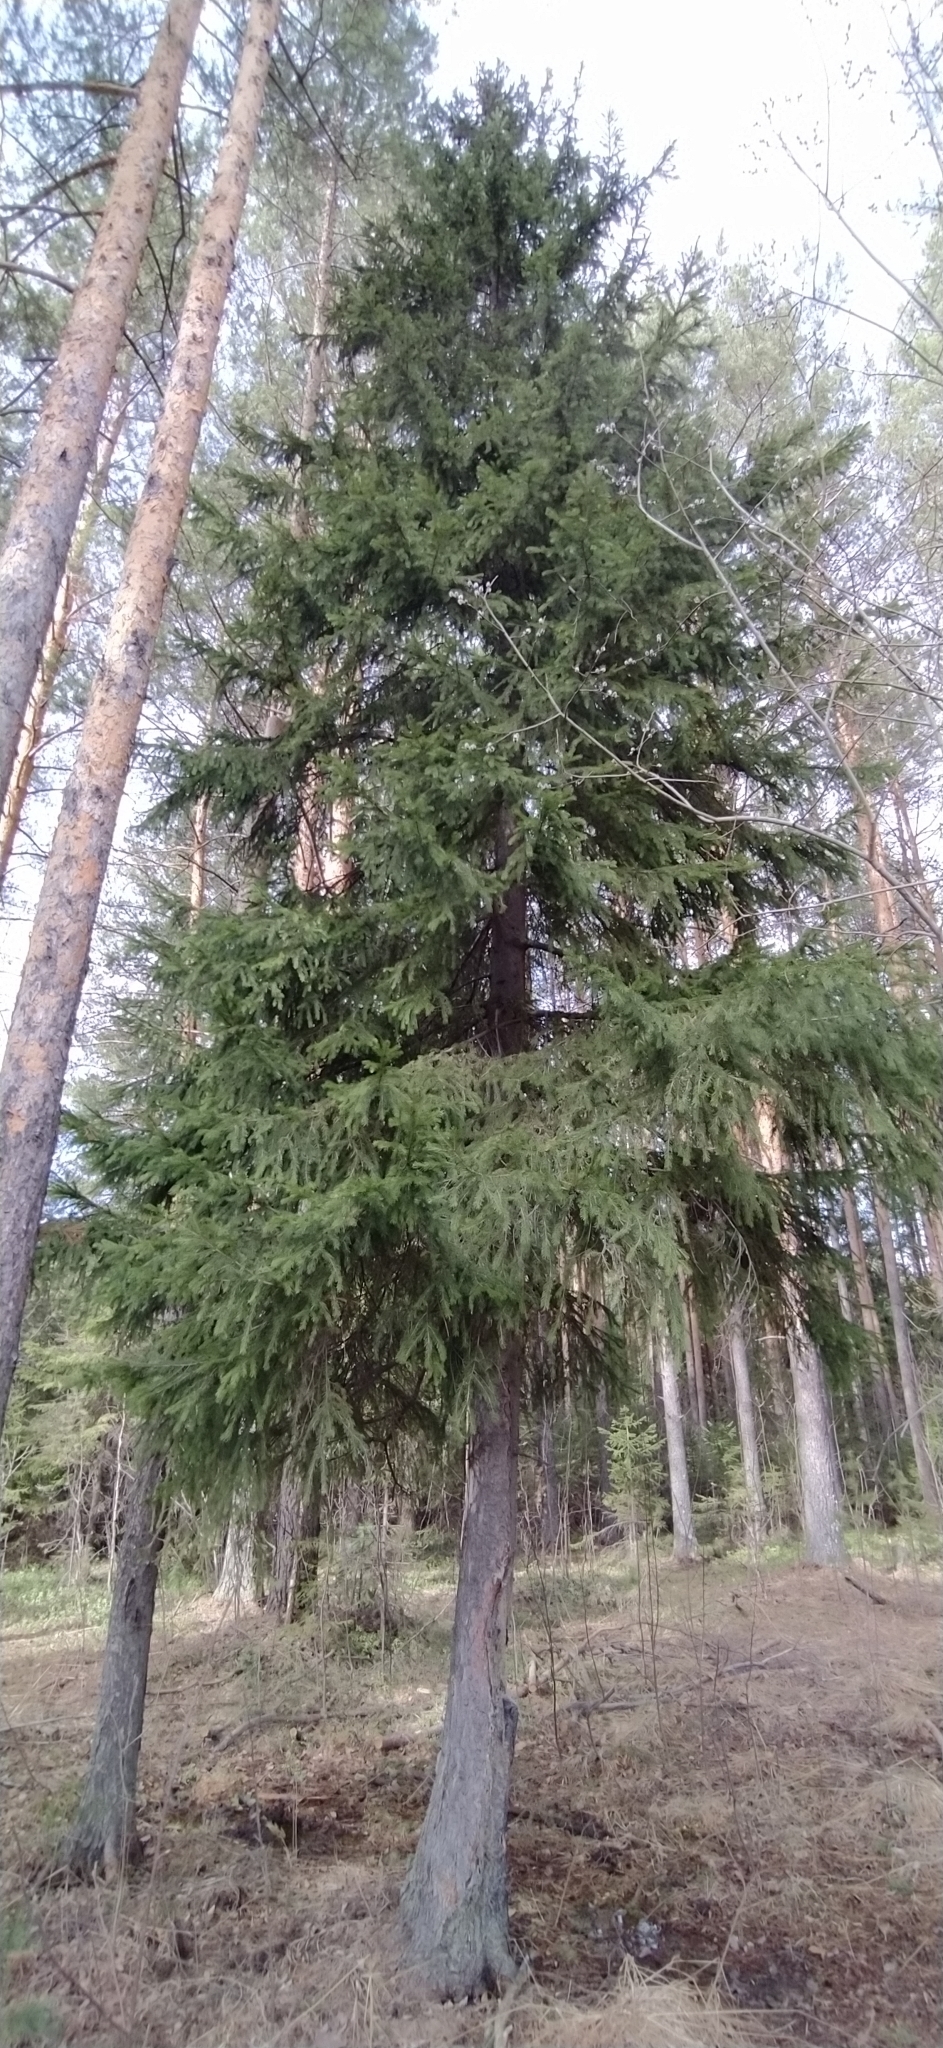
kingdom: Plantae
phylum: Tracheophyta
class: Pinopsida
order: Pinales
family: Pinaceae
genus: Picea
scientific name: Picea obovata
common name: Siberian spruce
